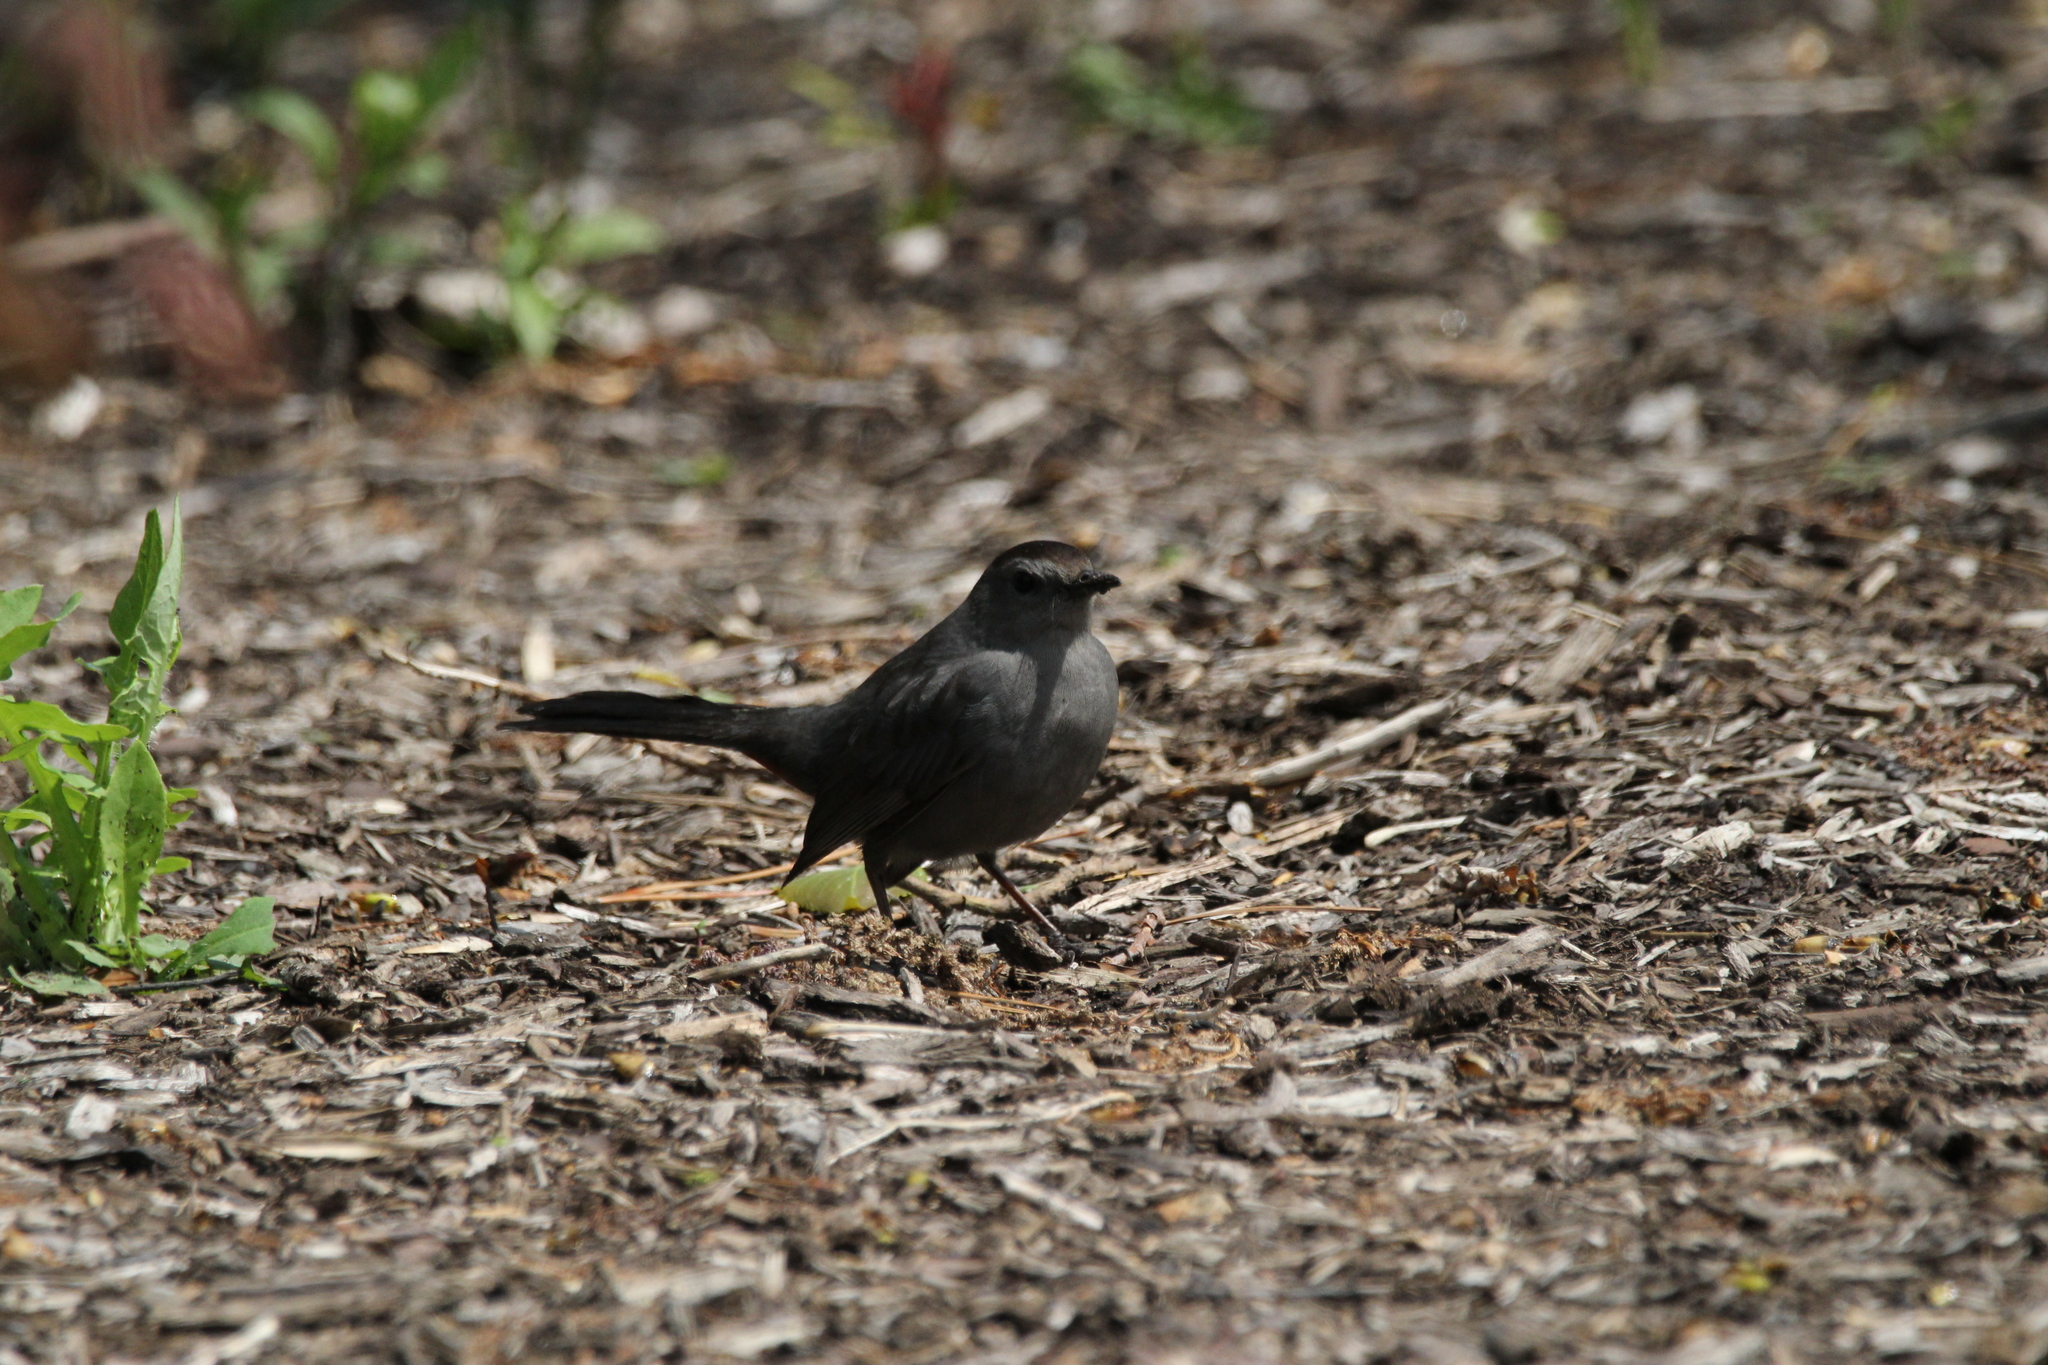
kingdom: Animalia
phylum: Chordata
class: Aves
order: Passeriformes
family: Mimidae
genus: Dumetella
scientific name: Dumetella carolinensis
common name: Gray catbird
